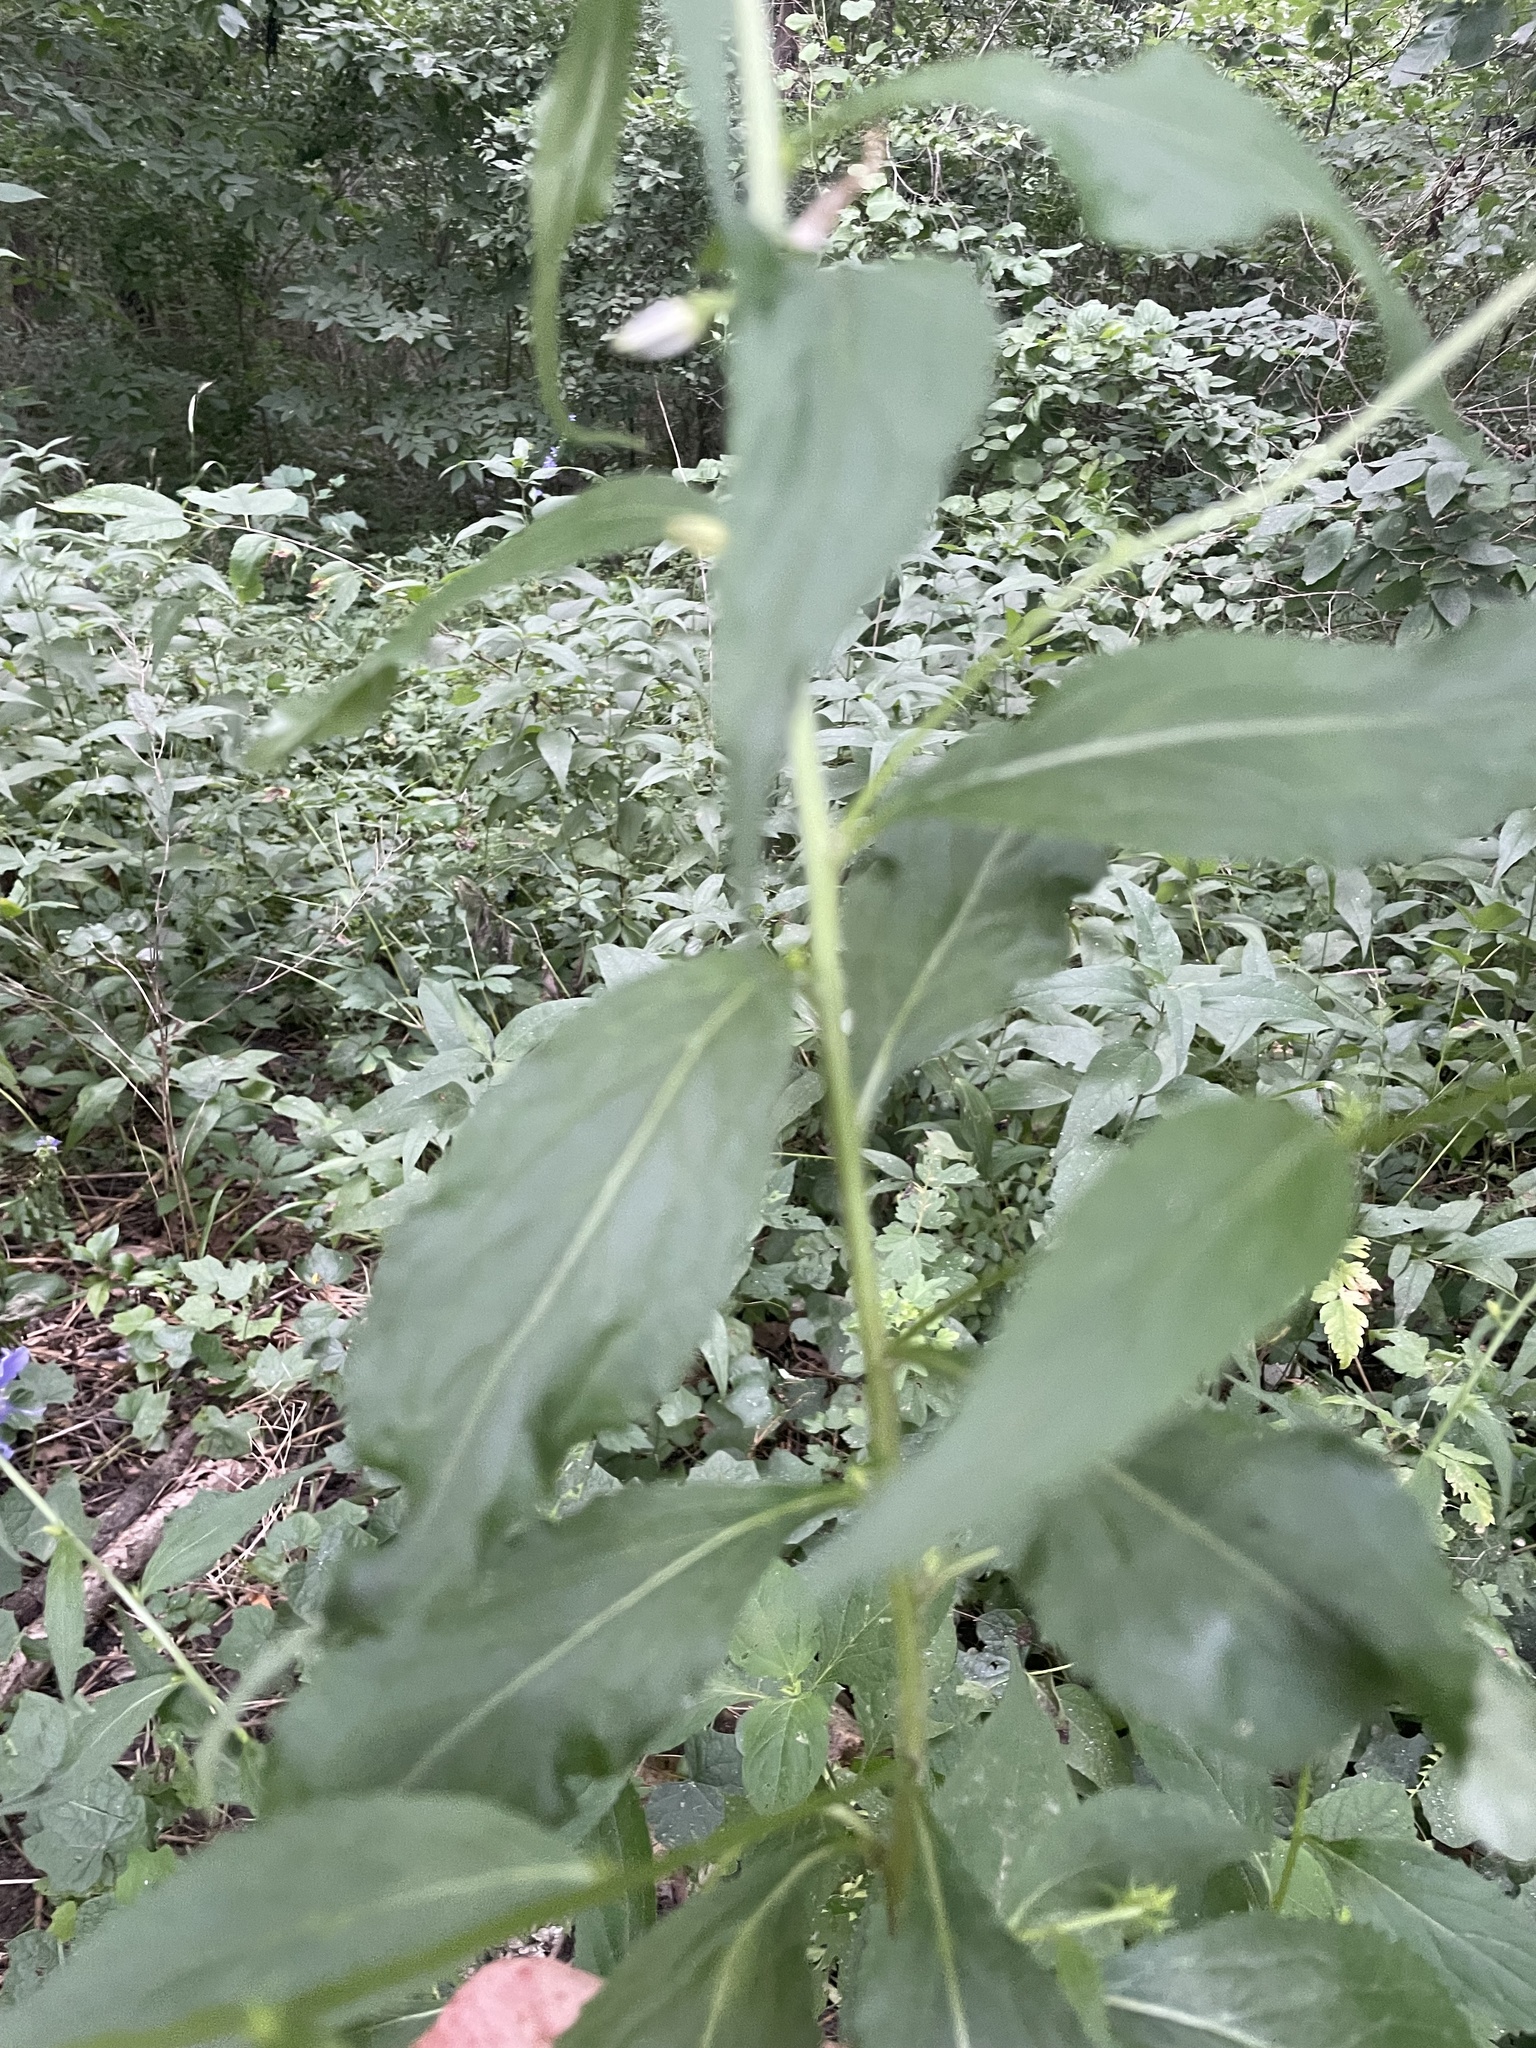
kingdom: Plantae
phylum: Tracheophyta
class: Magnoliopsida
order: Asterales
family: Campanulaceae
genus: Campanulastrum
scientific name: Campanulastrum americanum
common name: American bellflower
